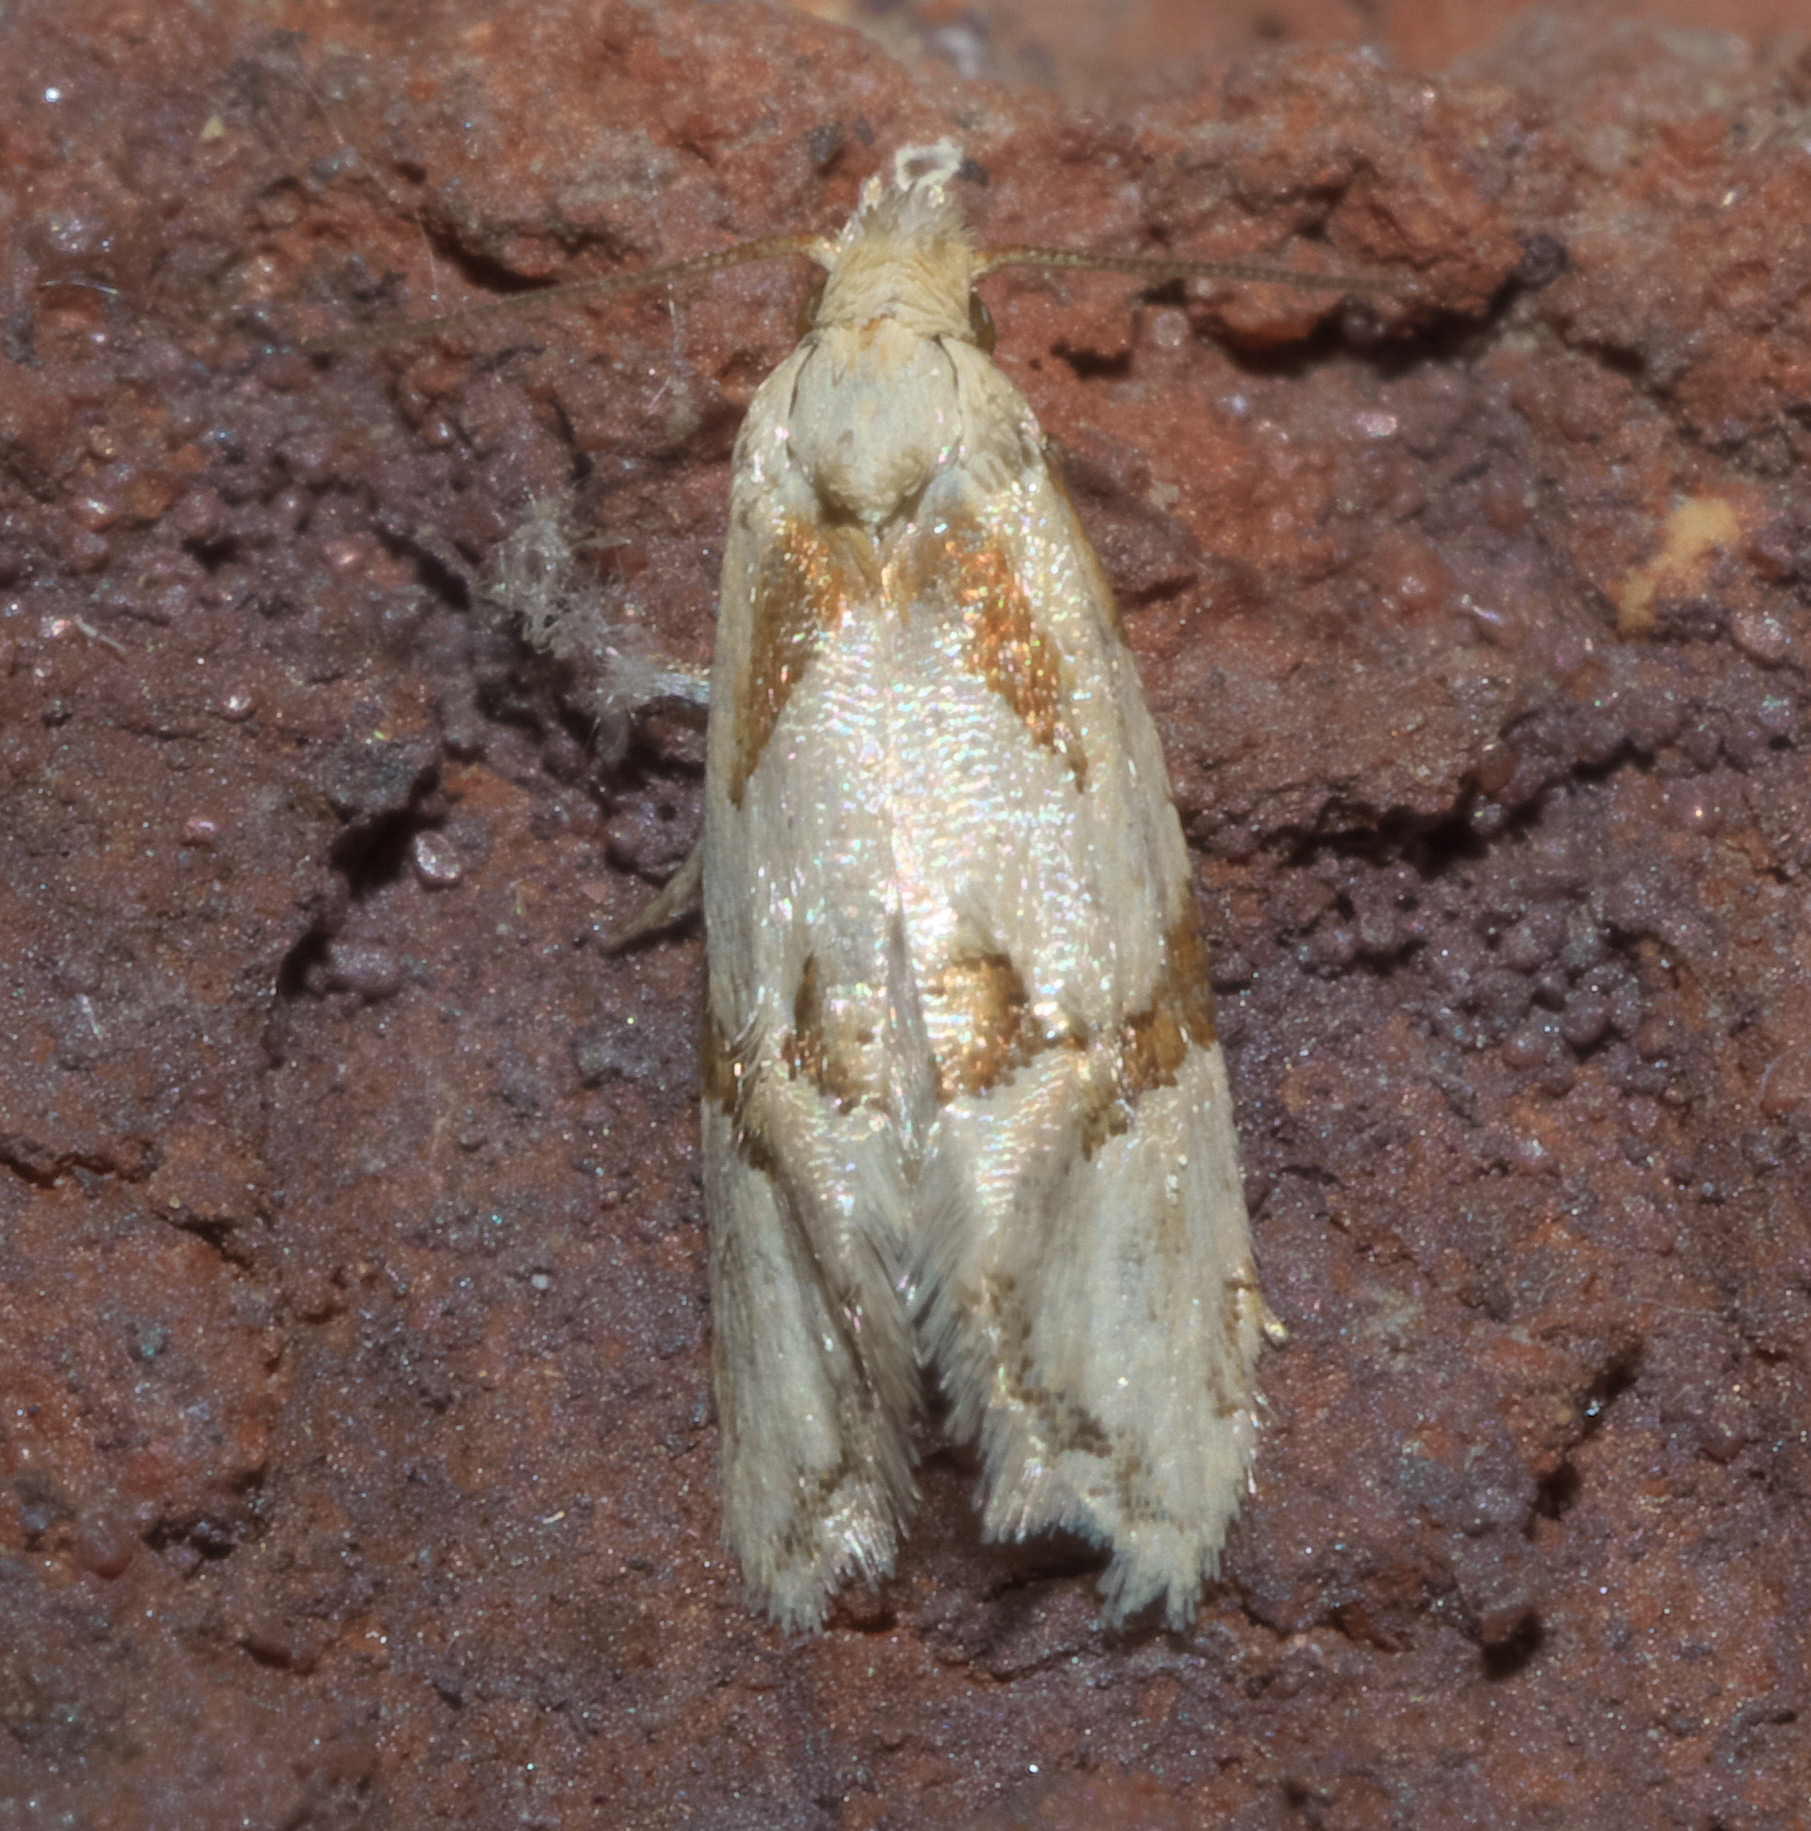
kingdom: Animalia
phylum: Arthropoda
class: Insecta
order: Lepidoptera
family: Tortricidae
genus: Aethes
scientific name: Aethes patricia
